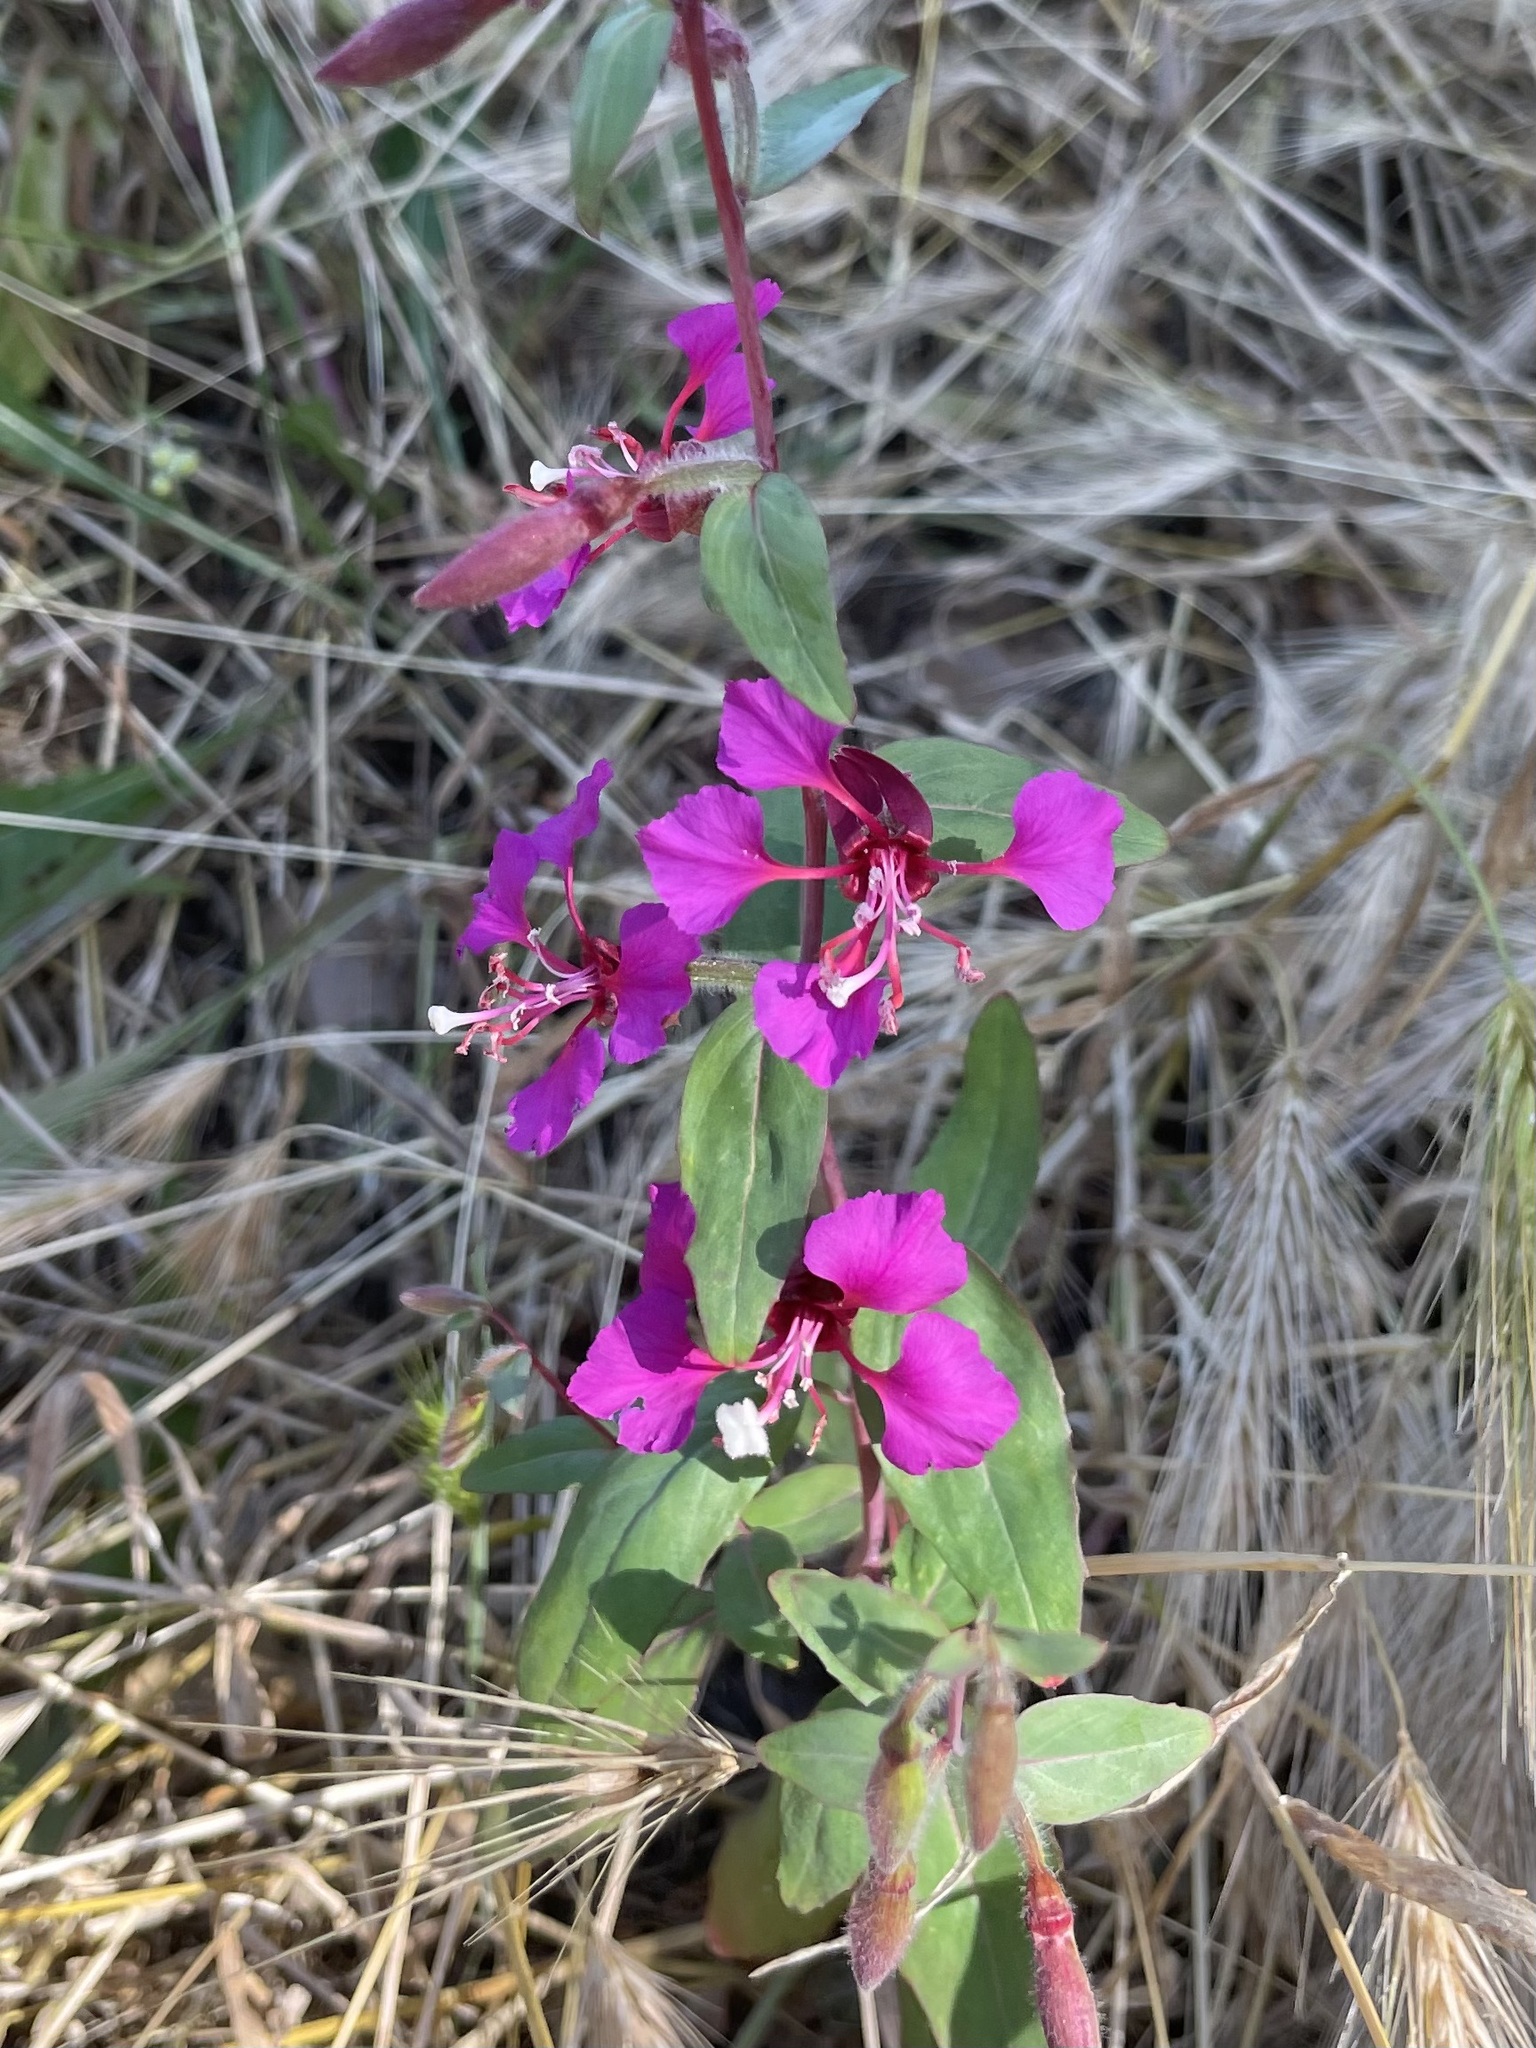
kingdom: Plantae
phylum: Tracheophyta
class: Magnoliopsida
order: Myrtales
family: Onagraceae
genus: Clarkia
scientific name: Clarkia unguiculata
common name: Clarkia
